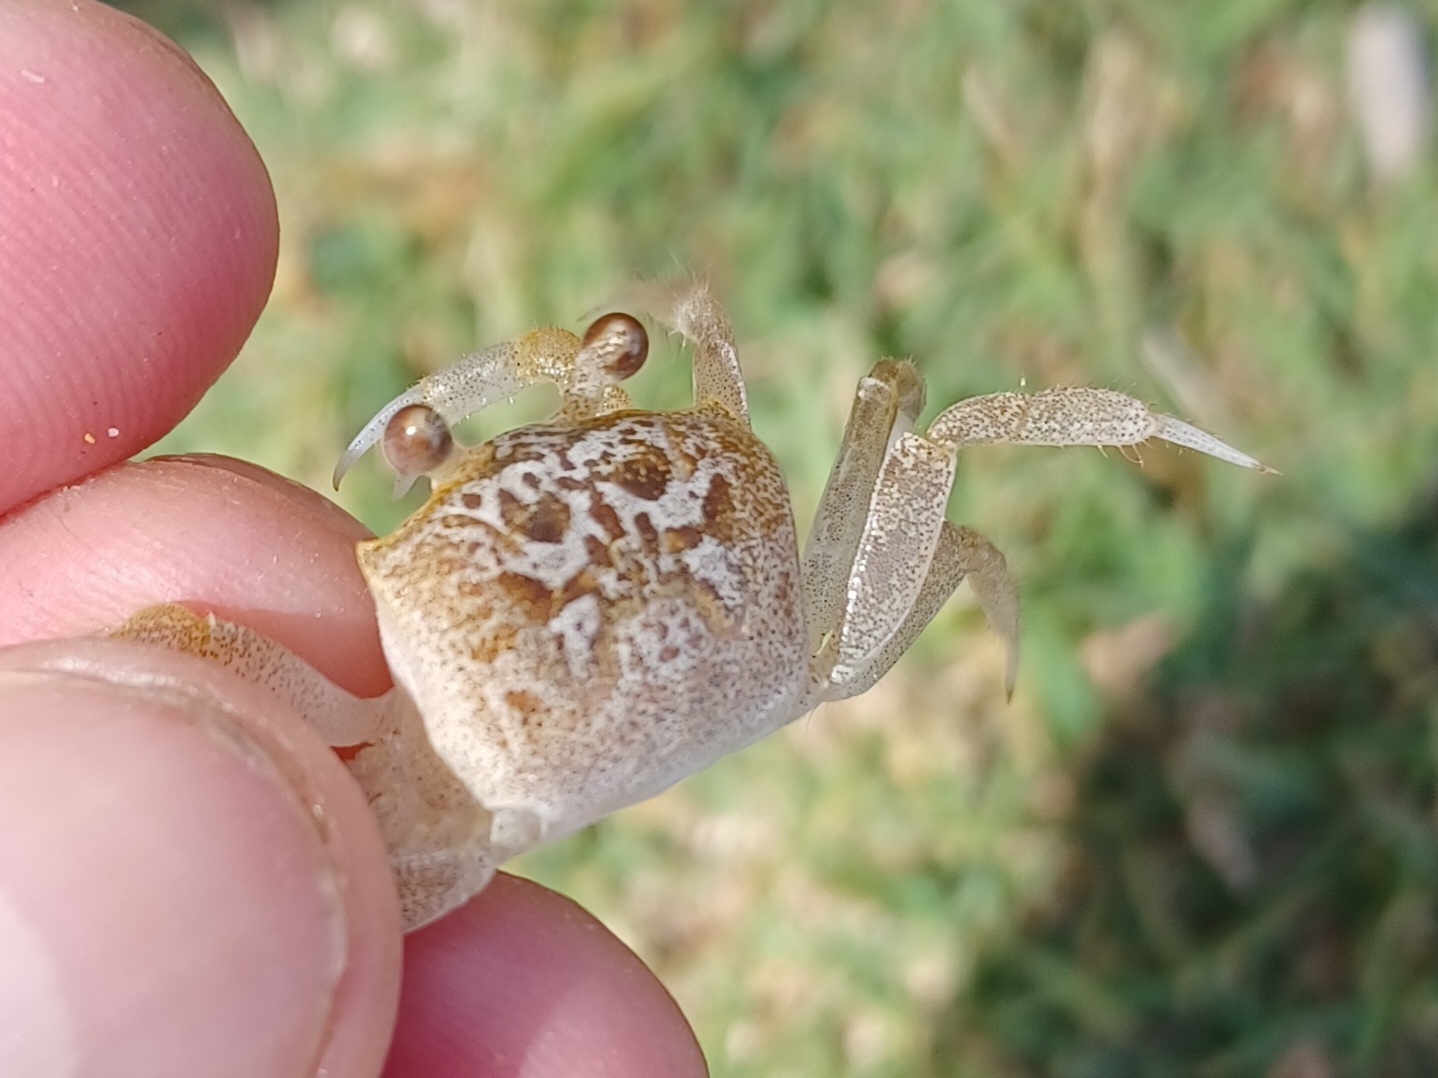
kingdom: Animalia
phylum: Arthropoda
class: Malacostraca
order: Decapoda
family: Ocypodidae
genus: Ocypode
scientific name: Ocypode cordimana
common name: Smooth-eyed ghost crab
